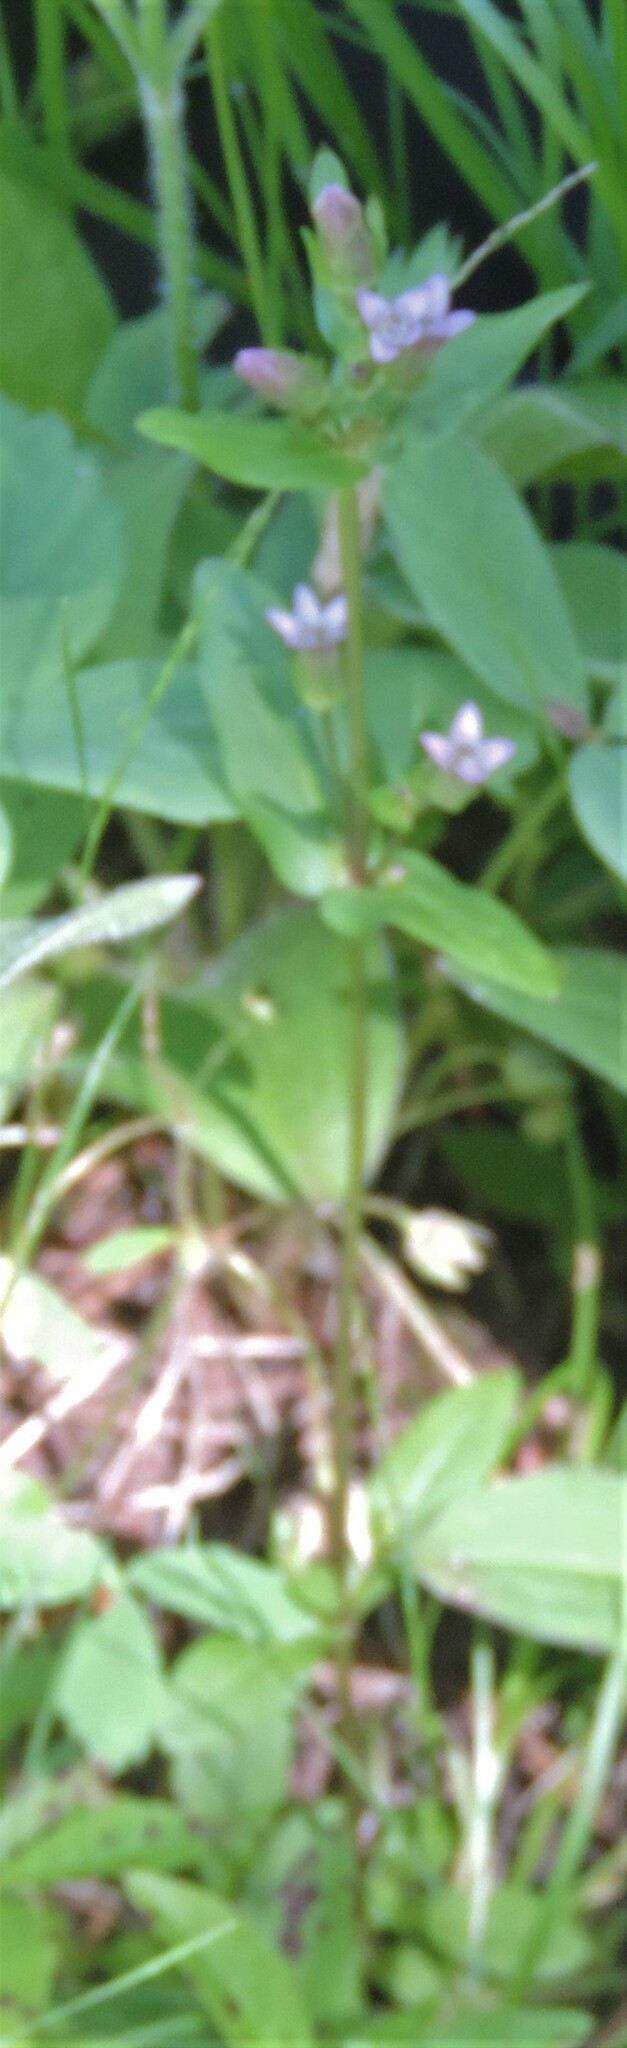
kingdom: Plantae
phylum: Tracheophyta
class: Magnoliopsida
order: Gentianales
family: Gentianaceae
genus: Gentianella
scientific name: Gentianella amarella
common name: Autumn gentian
